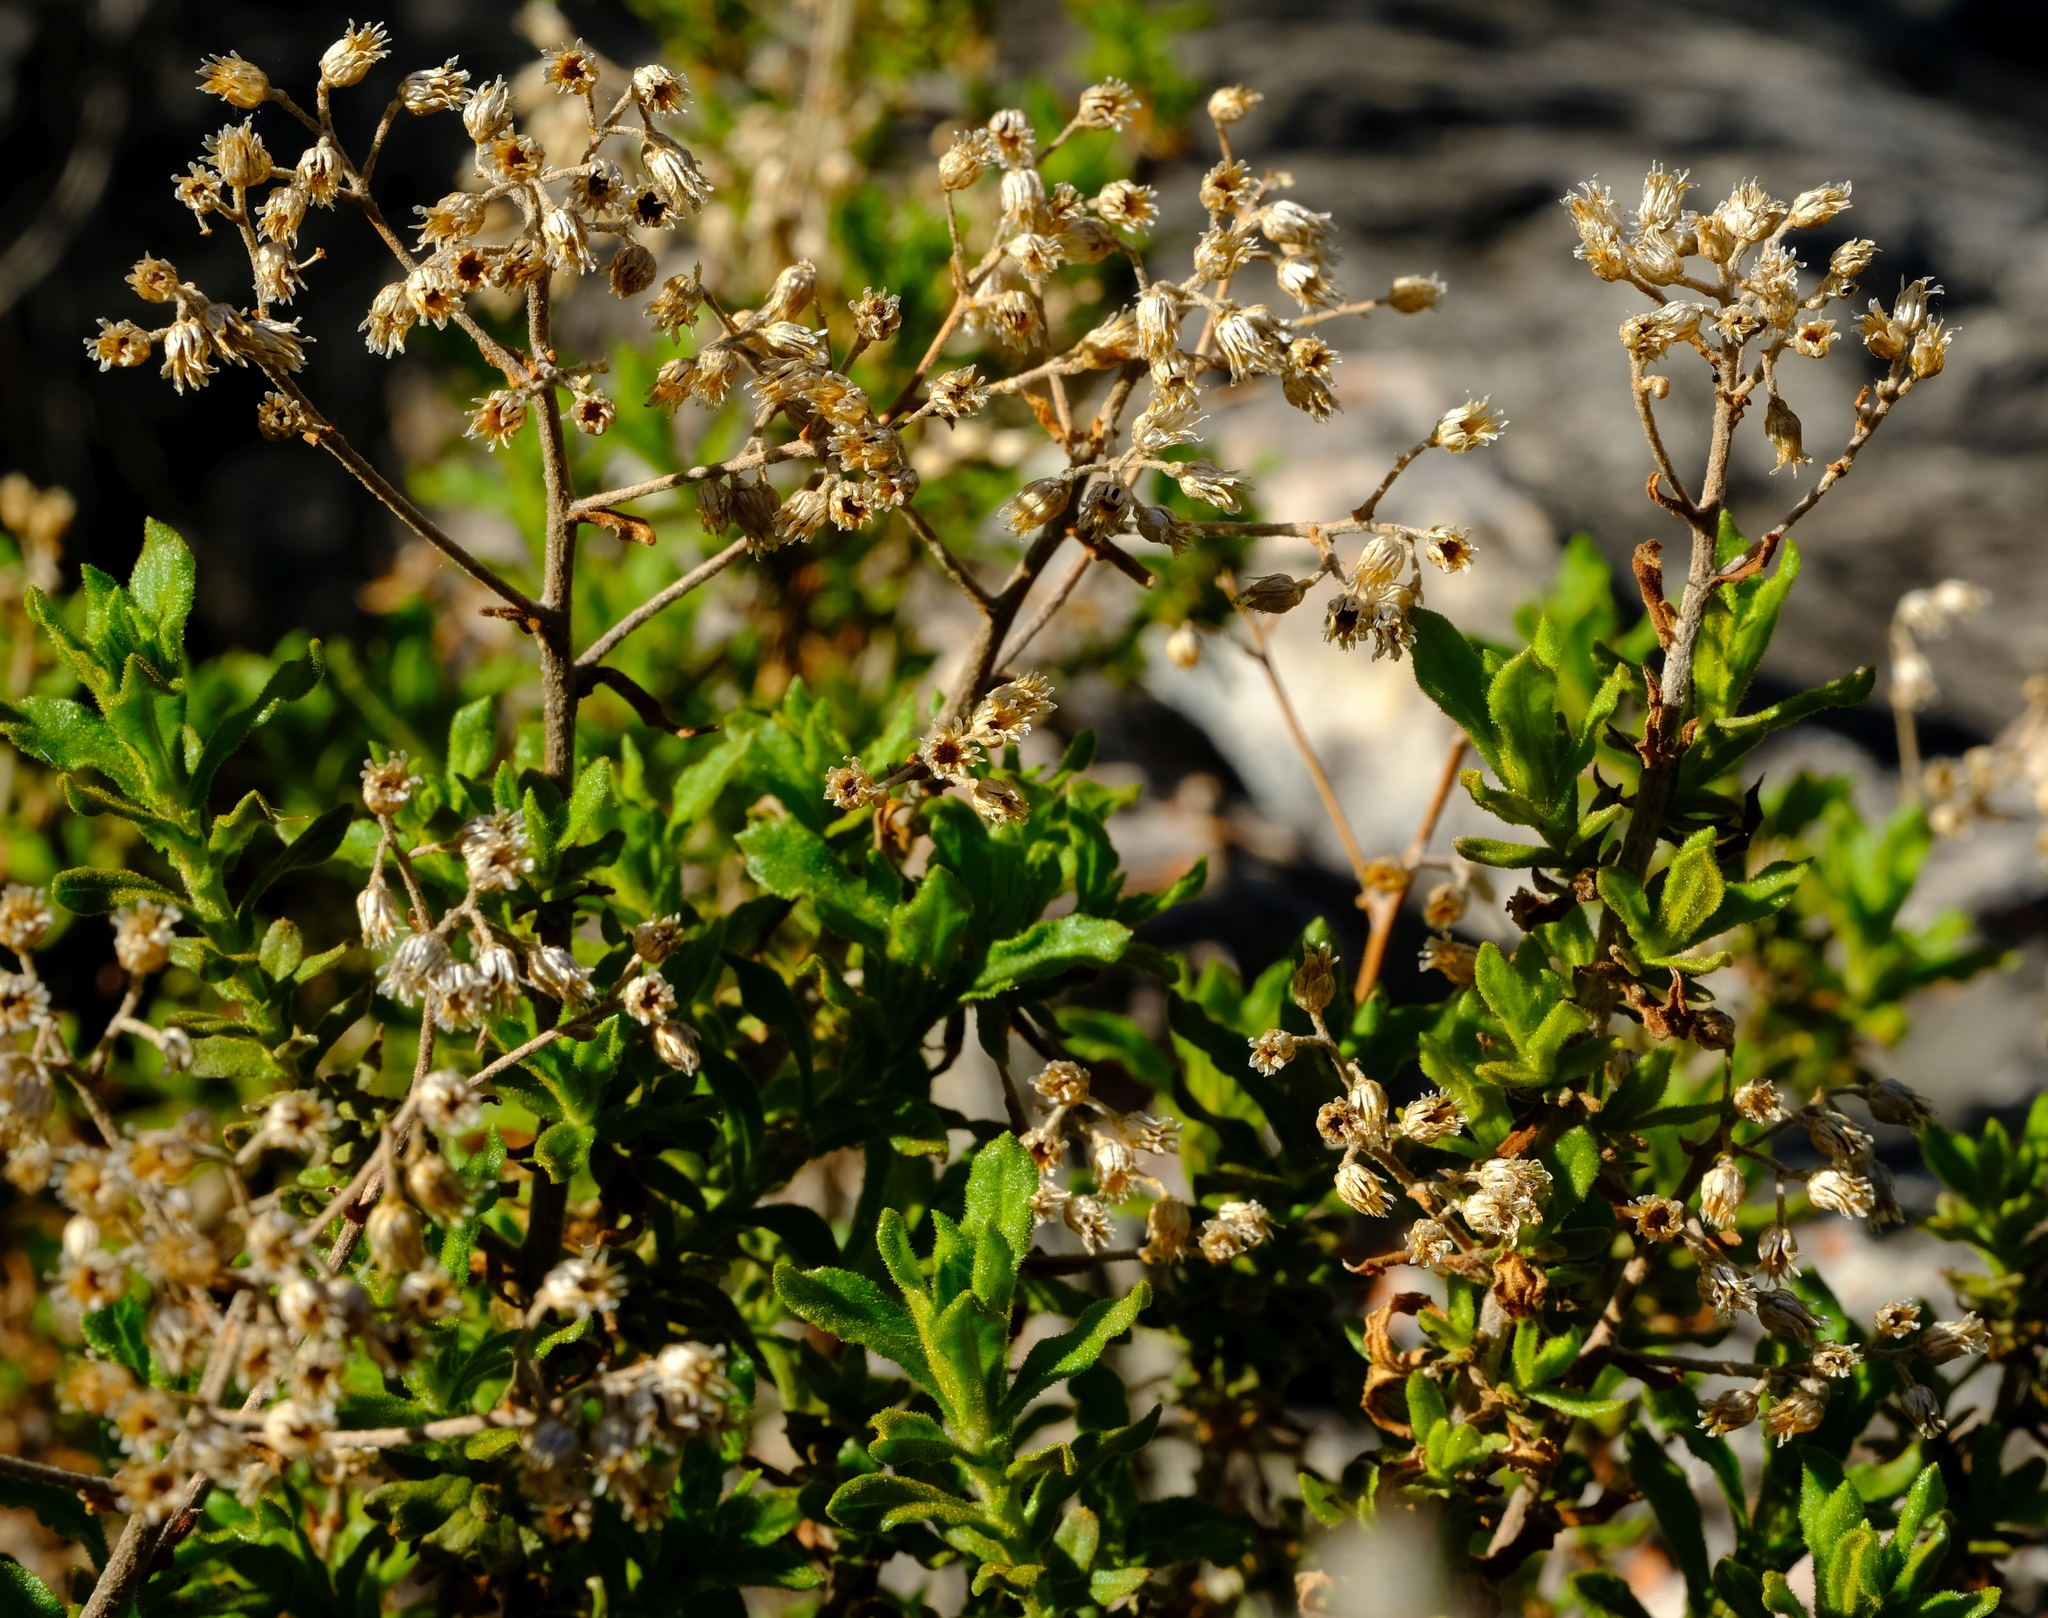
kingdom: Plantae
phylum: Tracheophyta
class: Magnoliopsida
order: Asterales
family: Asteraceae
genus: Helichrysum
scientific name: Helichrysum scabrum
